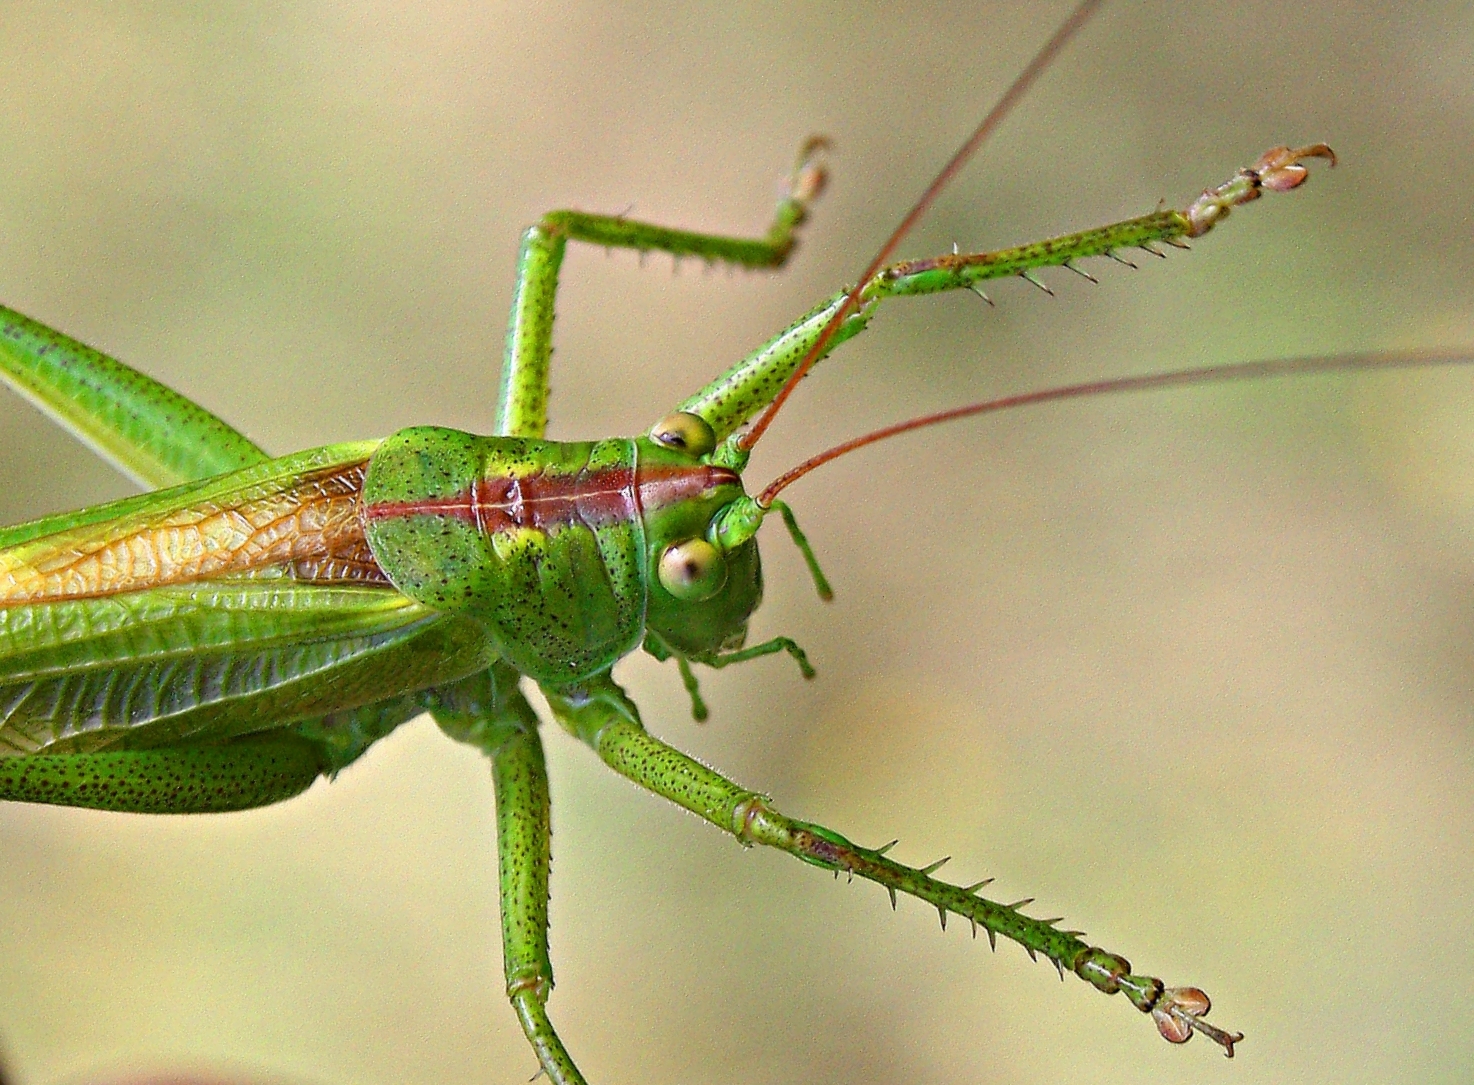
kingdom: Animalia
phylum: Arthropoda
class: Insecta
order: Orthoptera
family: Tettigoniidae
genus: Tettigonia
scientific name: Tettigonia viridissima
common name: Great green bush-cricket
